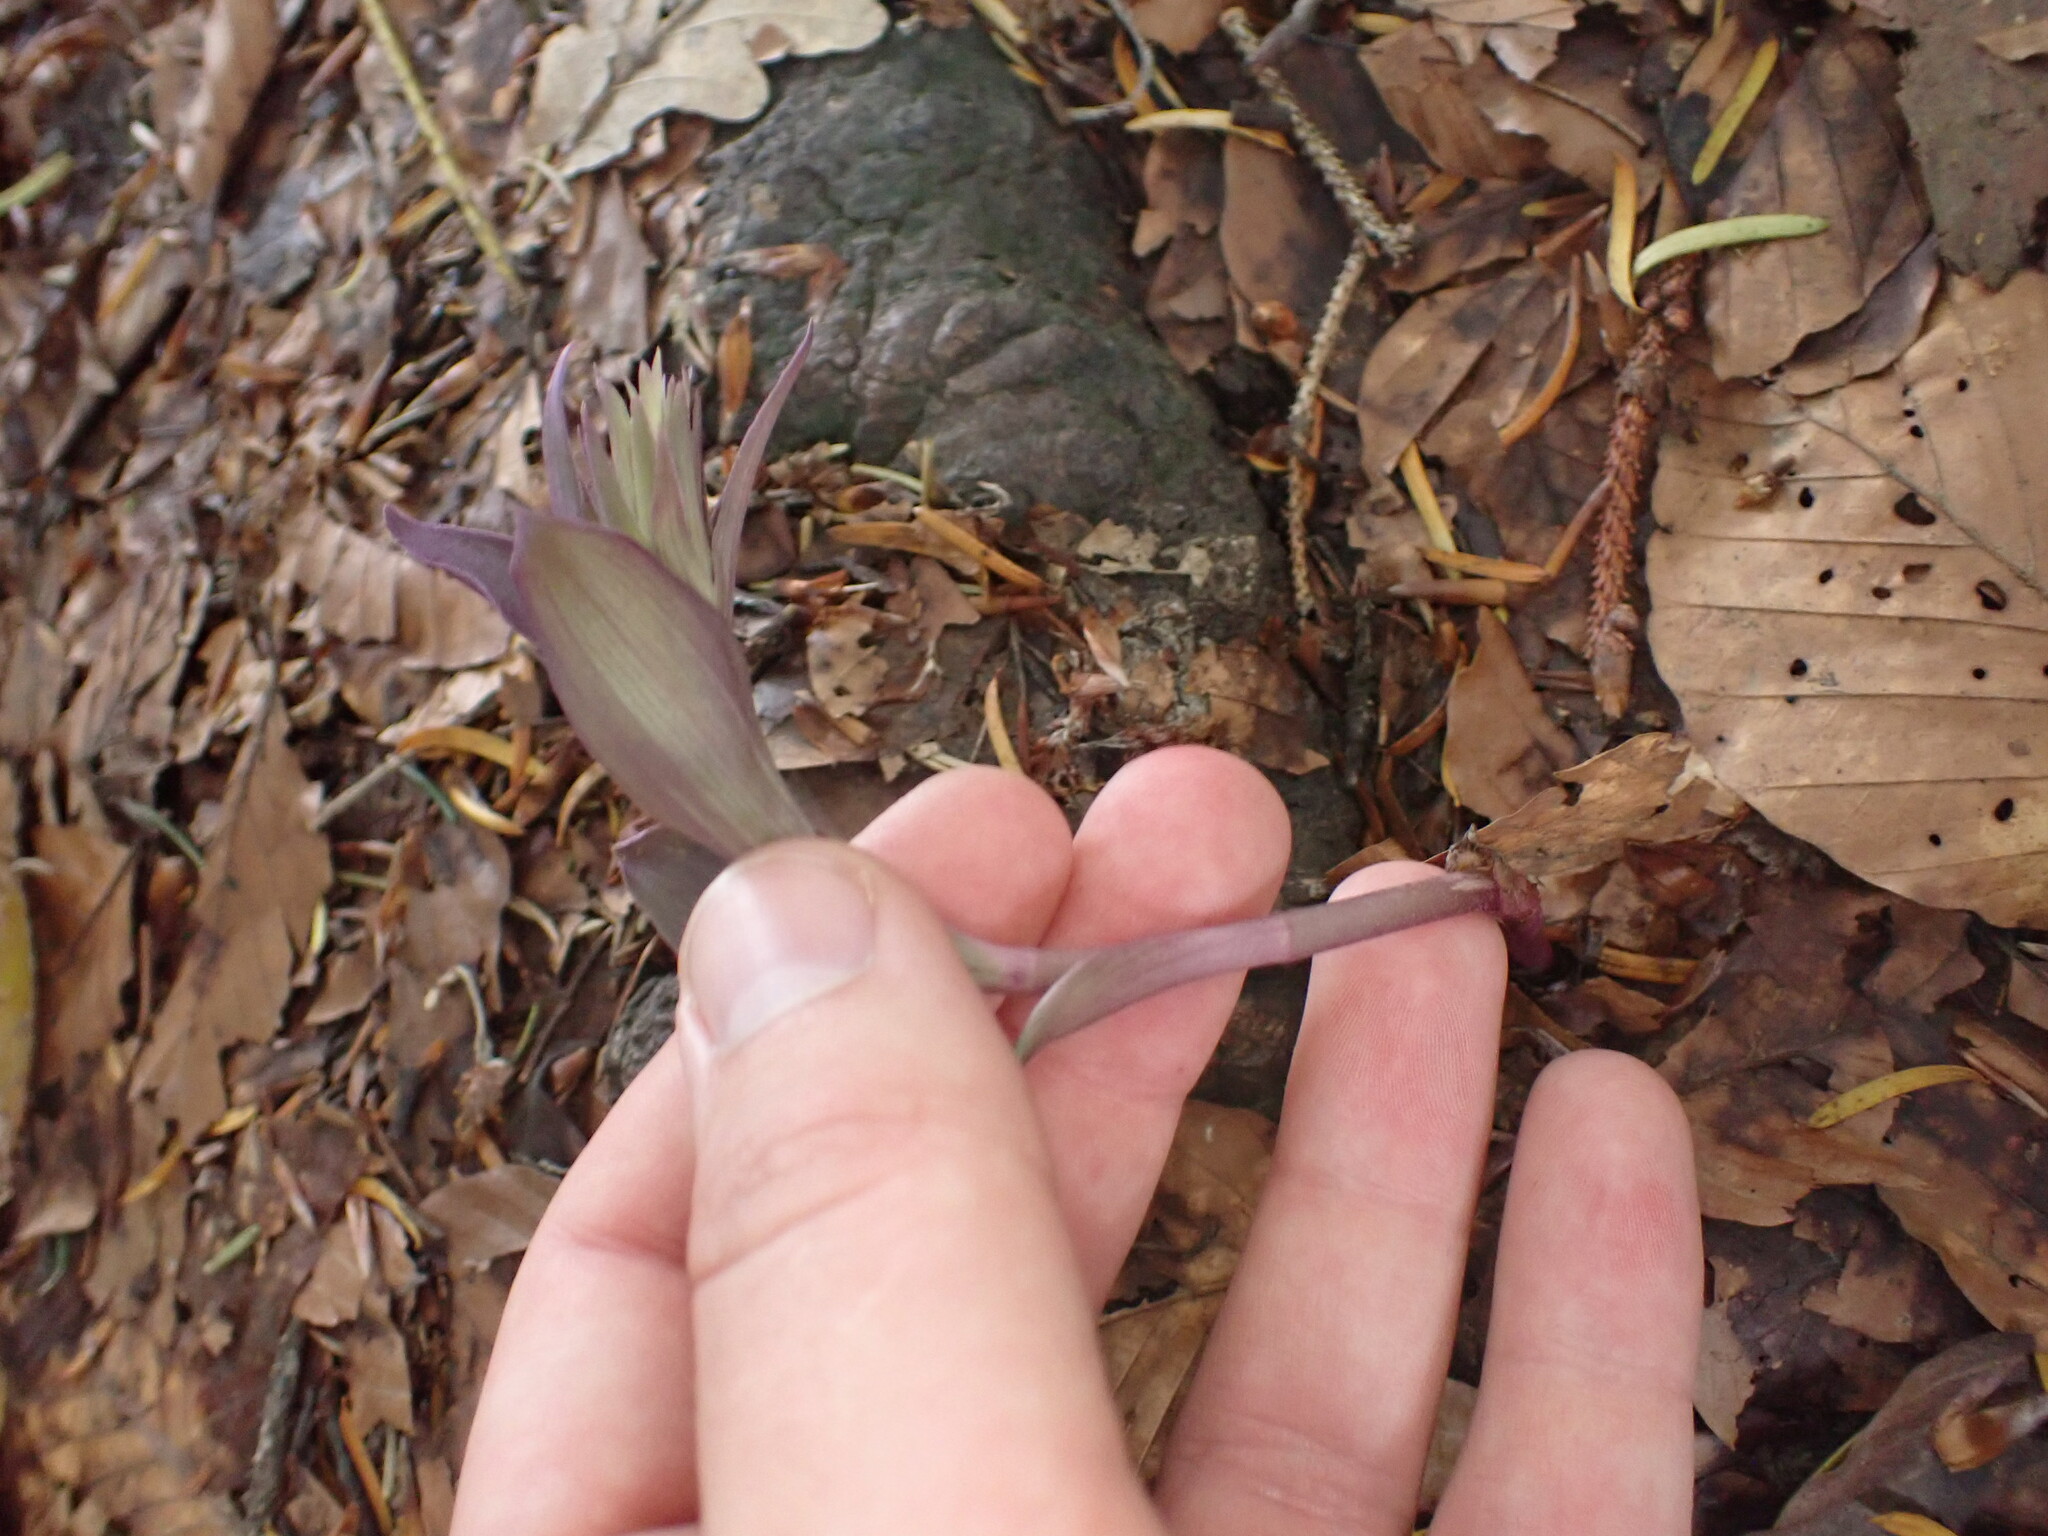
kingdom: Plantae
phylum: Tracheophyta
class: Liliopsida
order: Asparagales
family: Orchidaceae
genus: Epipactis
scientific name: Epipactis purpurata
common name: Violet helleborine
